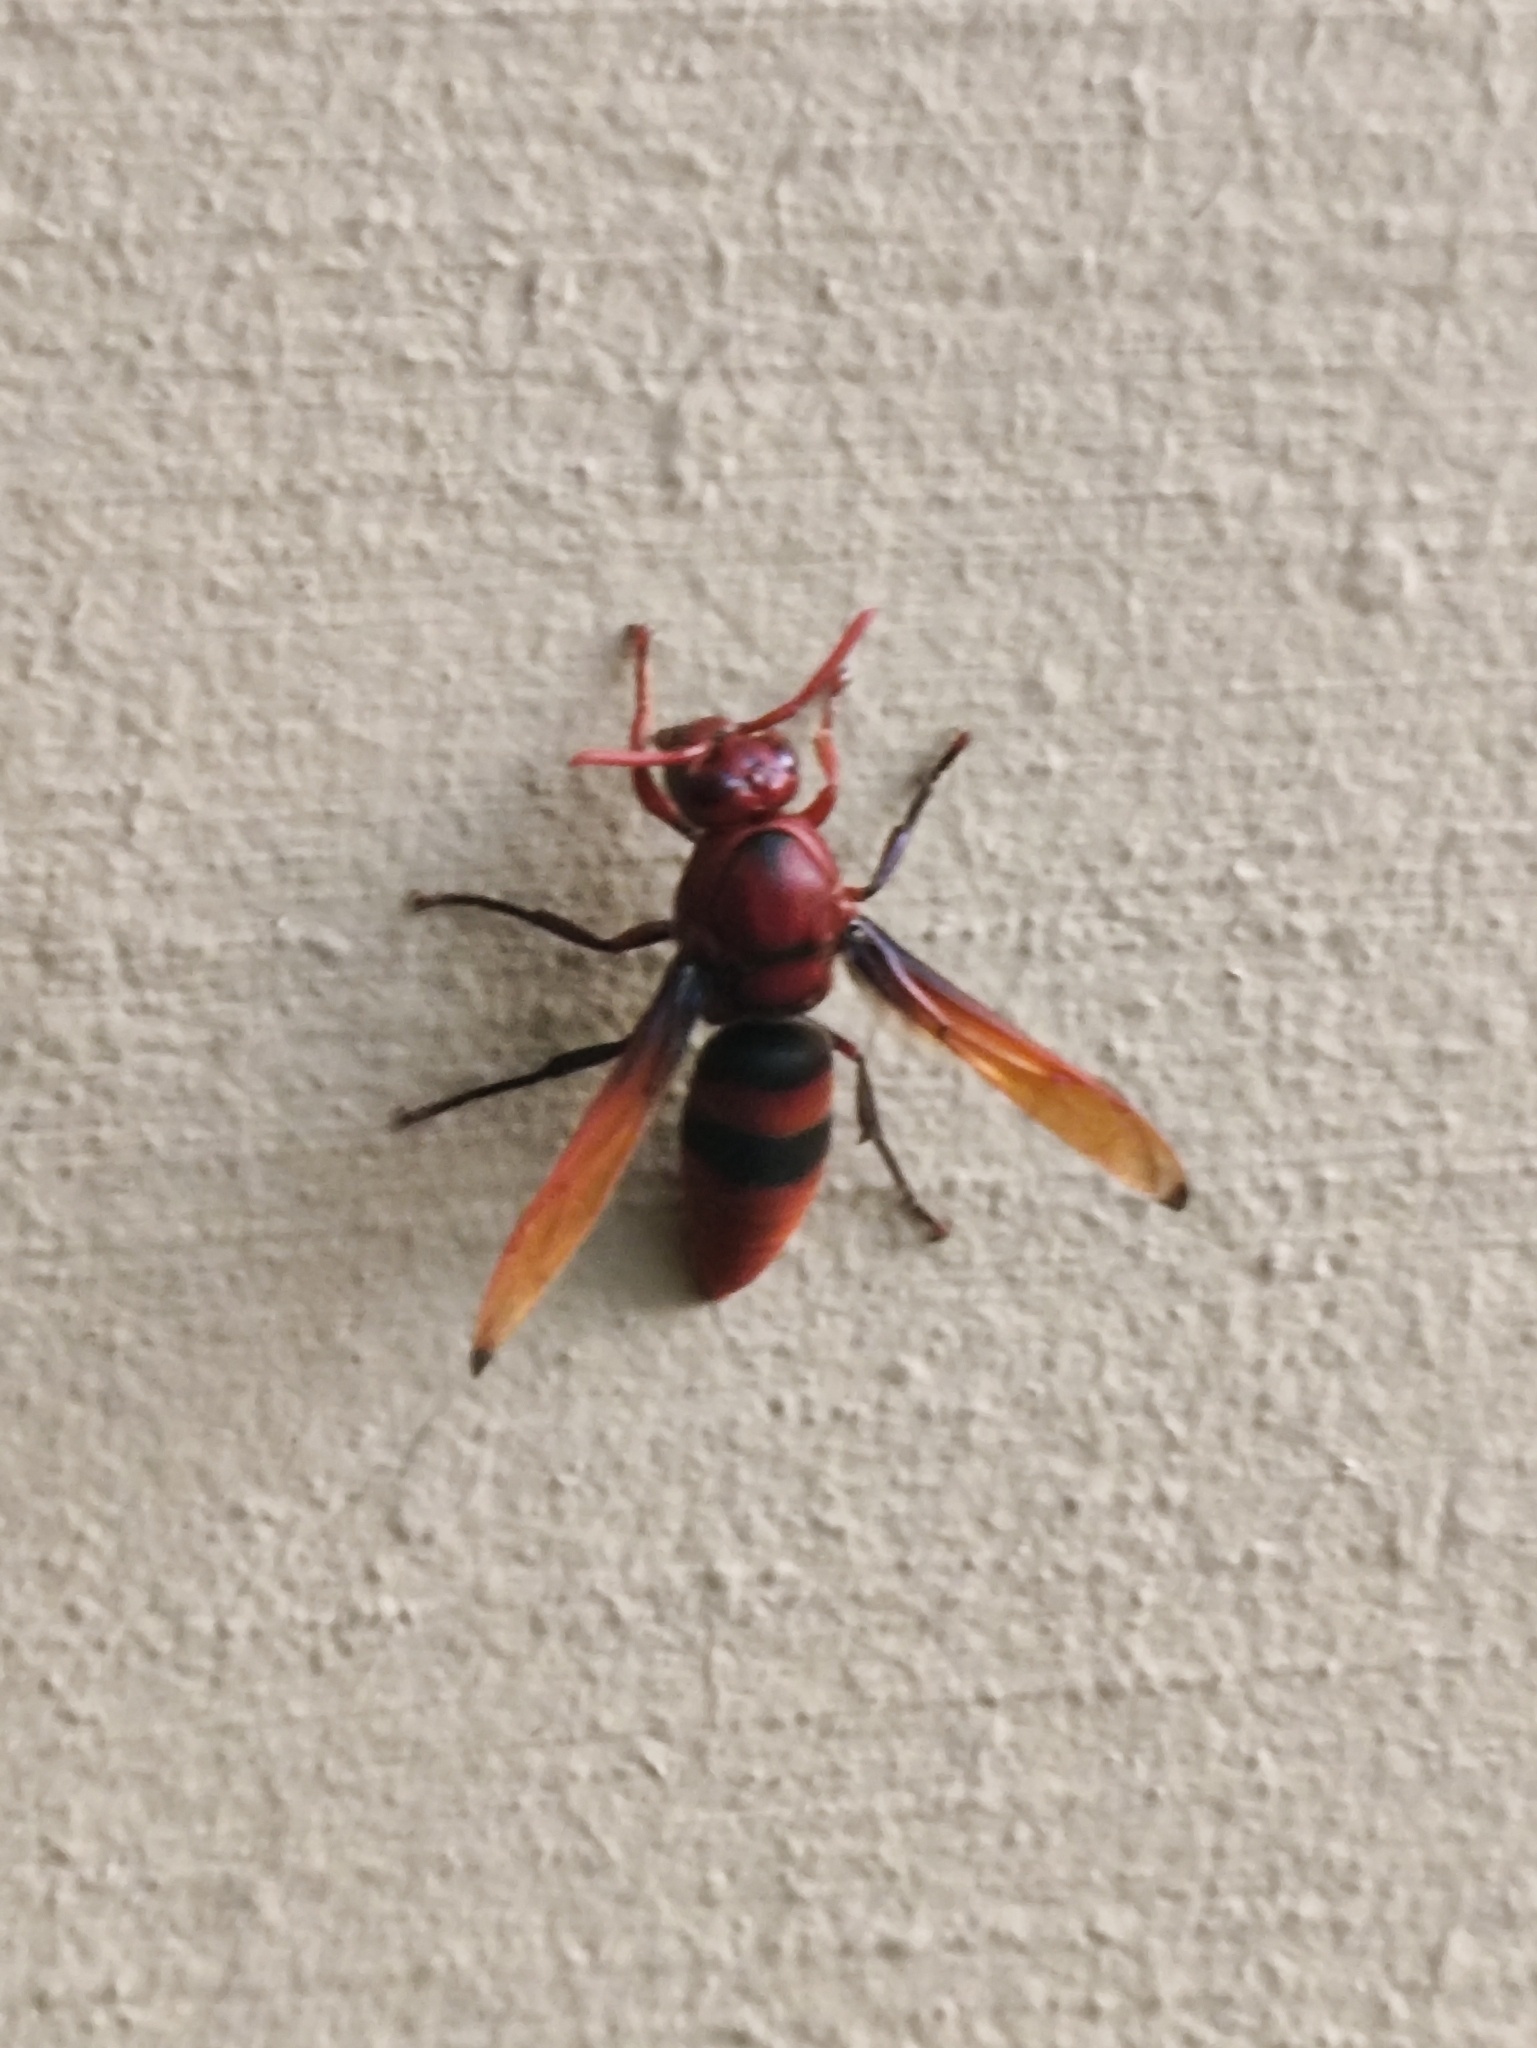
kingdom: Animalia
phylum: Arthropoda
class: Insecta
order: Hymenoptera
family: Eumenidae
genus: Rhynchium
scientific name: Rhynchium brunneum
